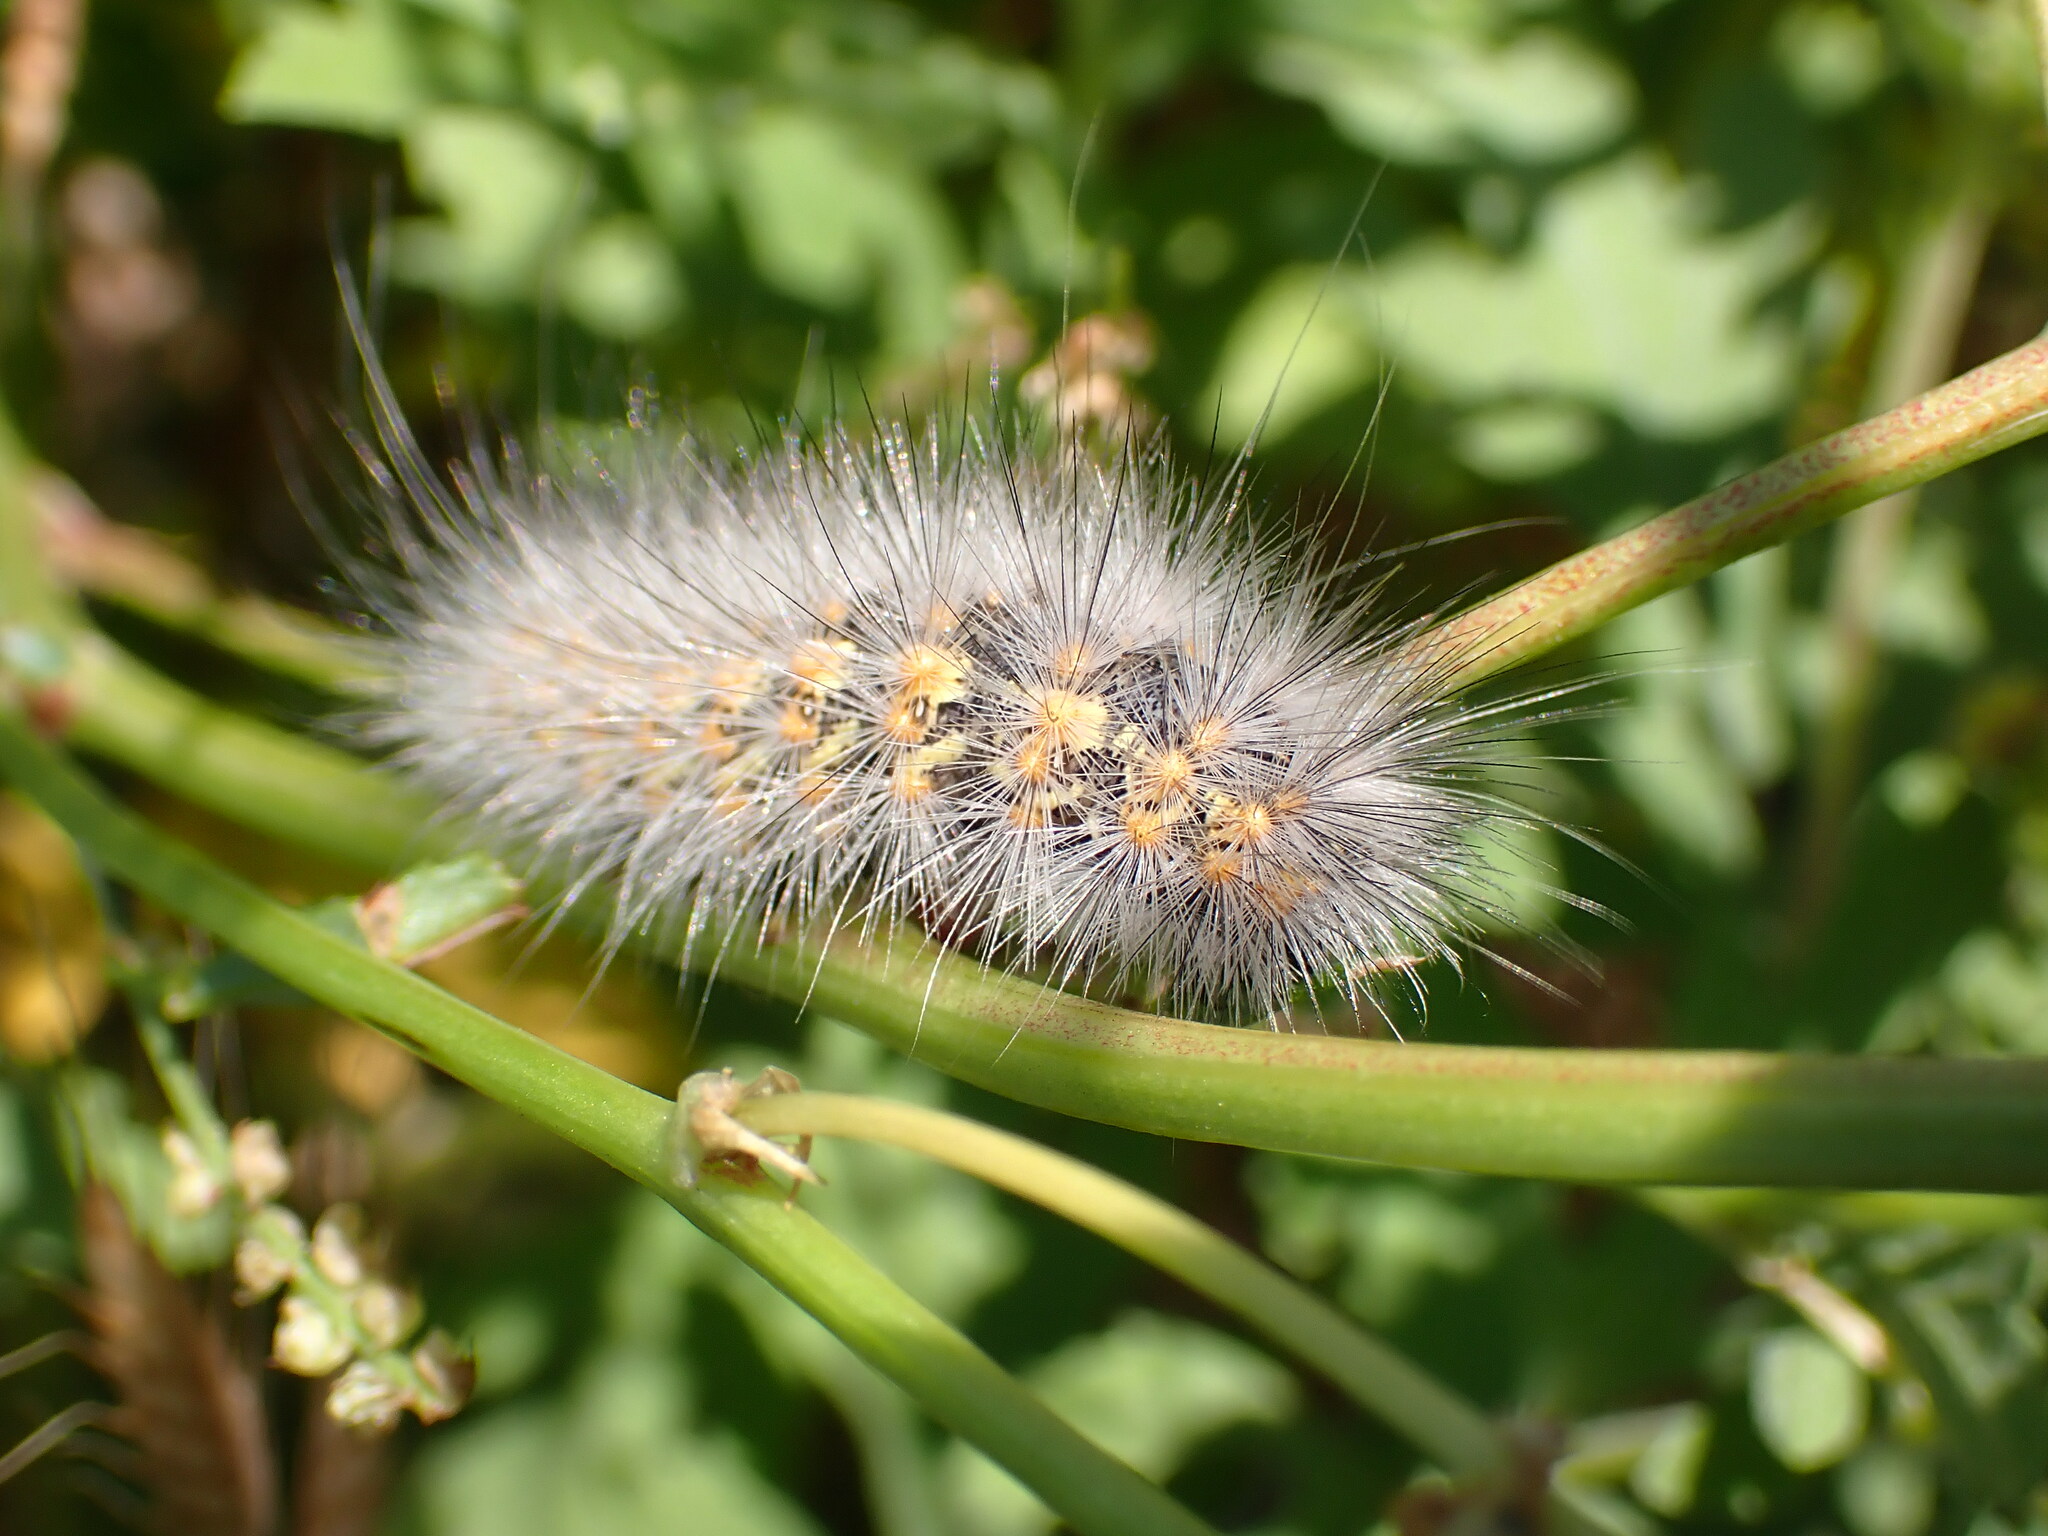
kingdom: Animalia
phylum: Arthropoda
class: Insecta
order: Lepidoptera
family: Erebidae
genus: Estigmene
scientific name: Estigmene acrea
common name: Salt marsh moth
